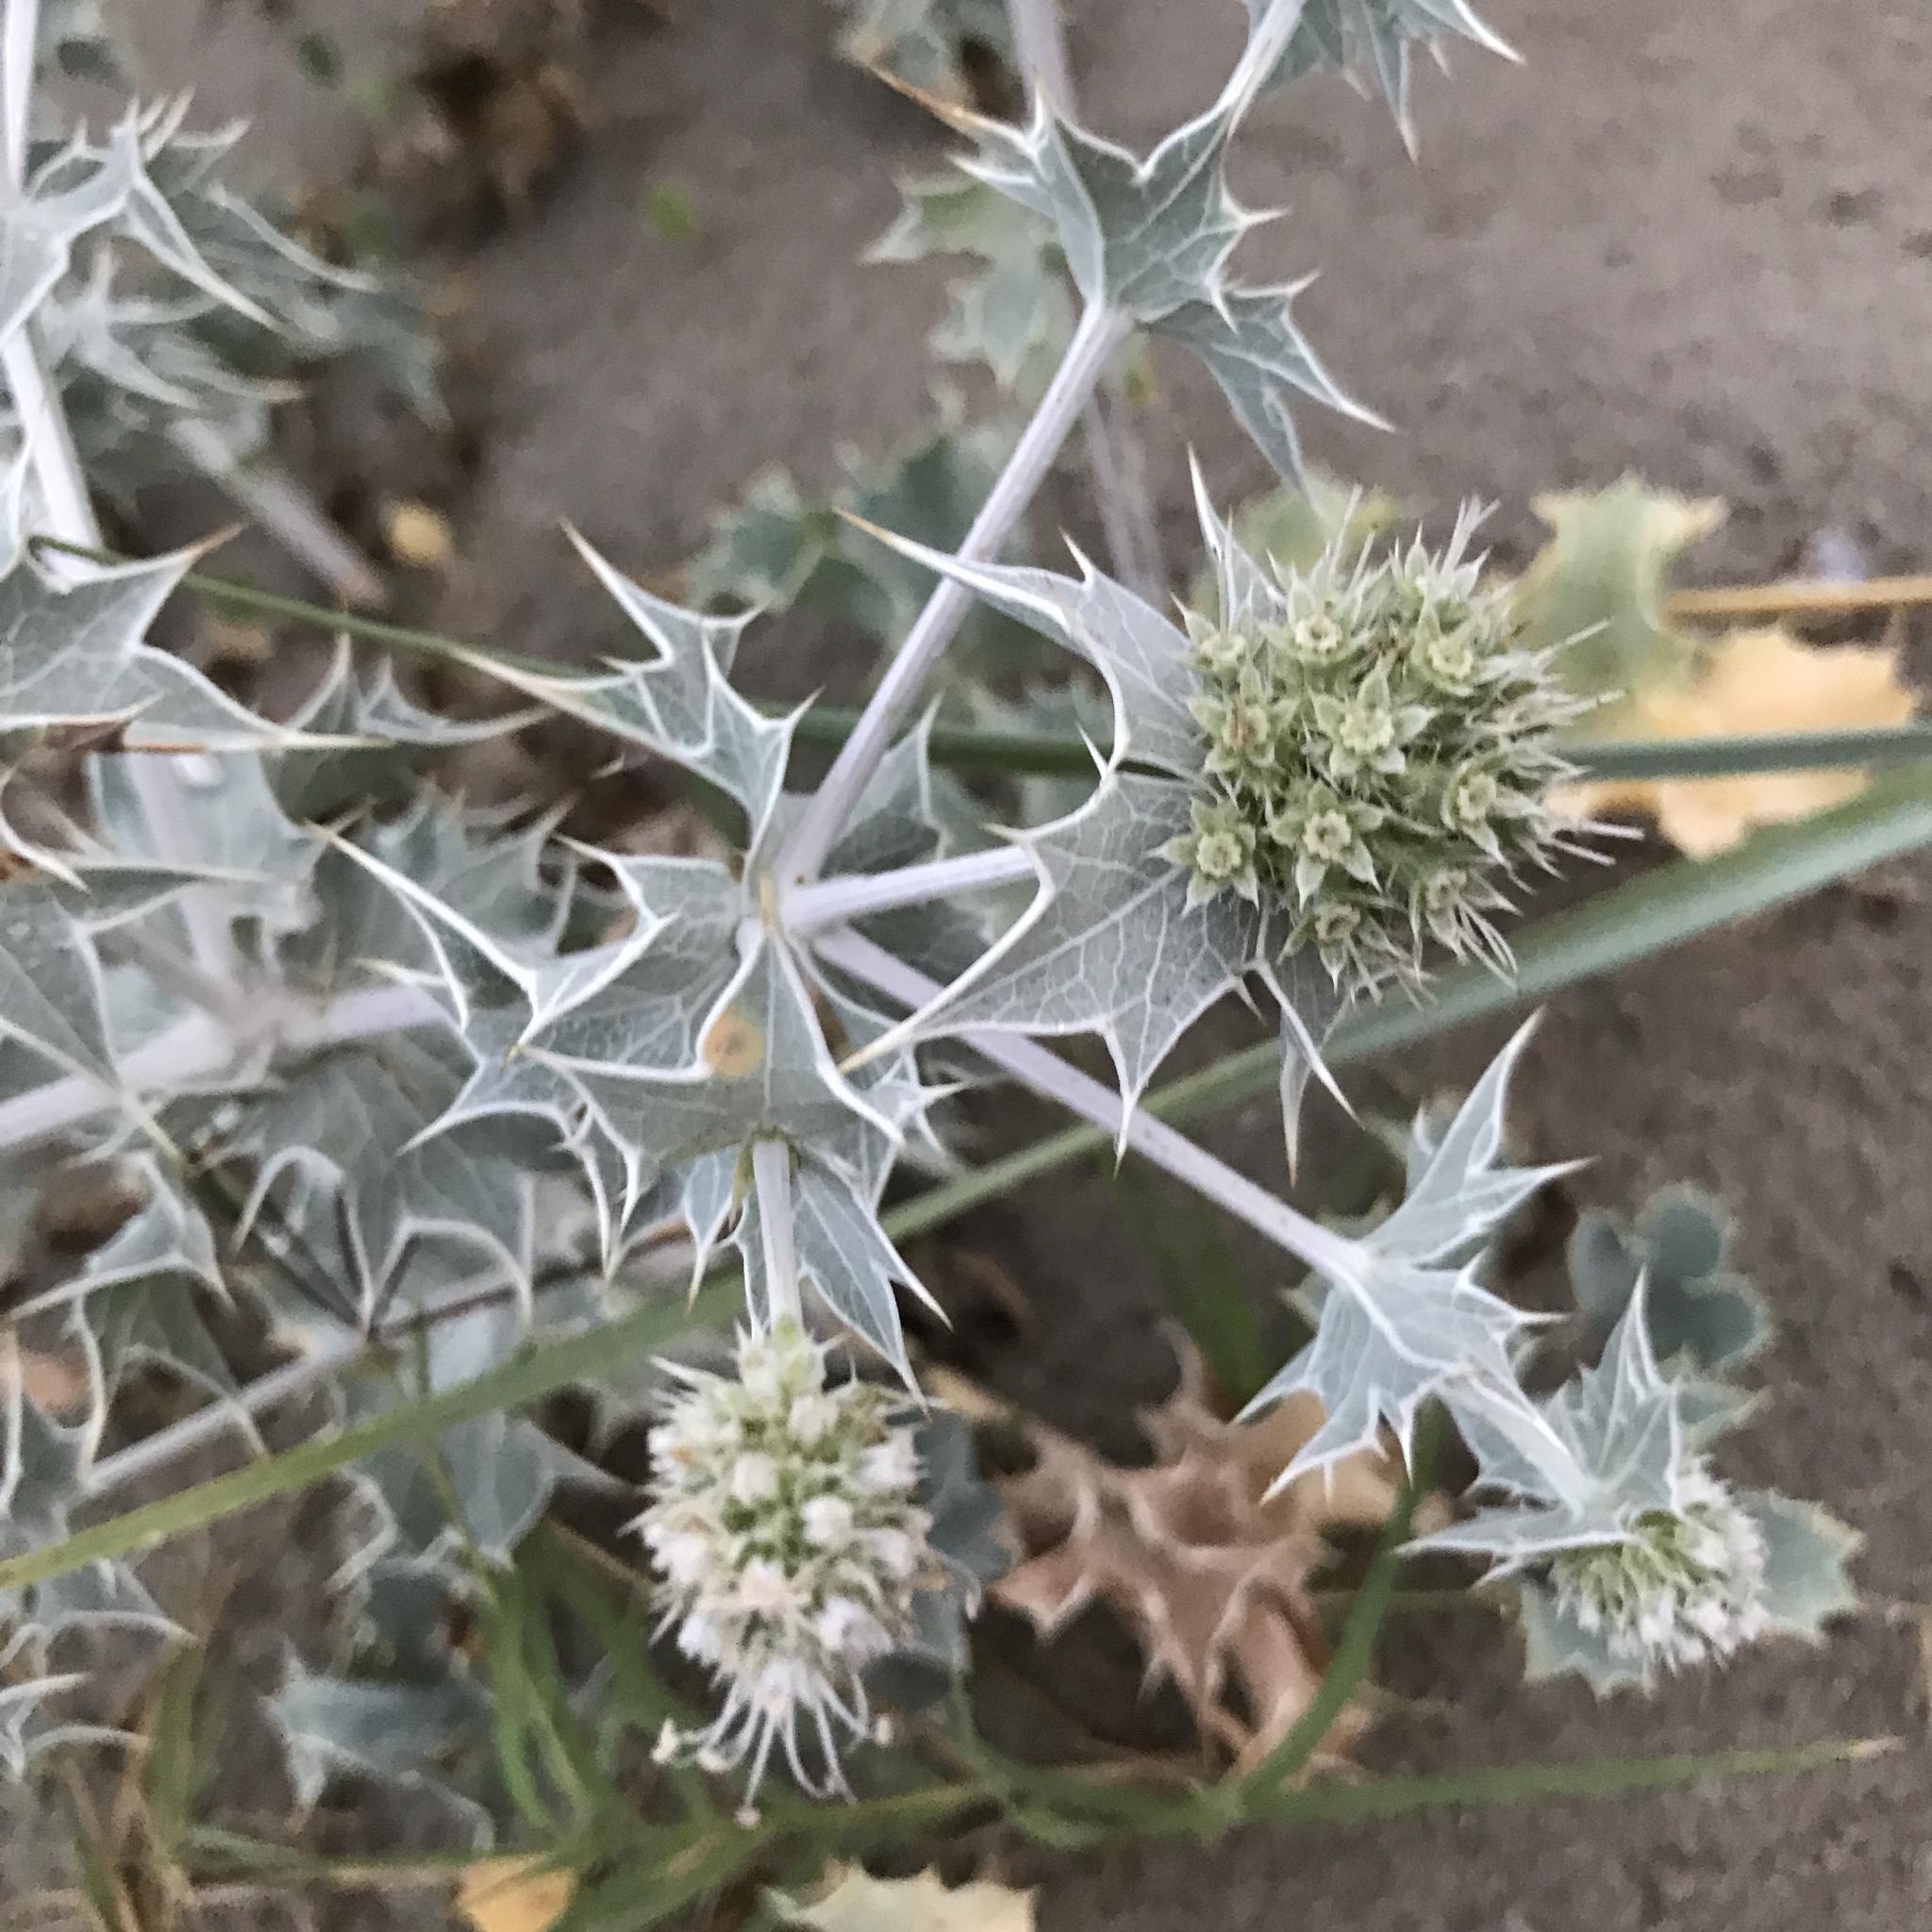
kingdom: Plantae
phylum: Tracheophyta
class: Magnoliopsida
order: Apiales
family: Apiaceae
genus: Eryngium
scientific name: Eryngium maritimum
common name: Sea-holly
